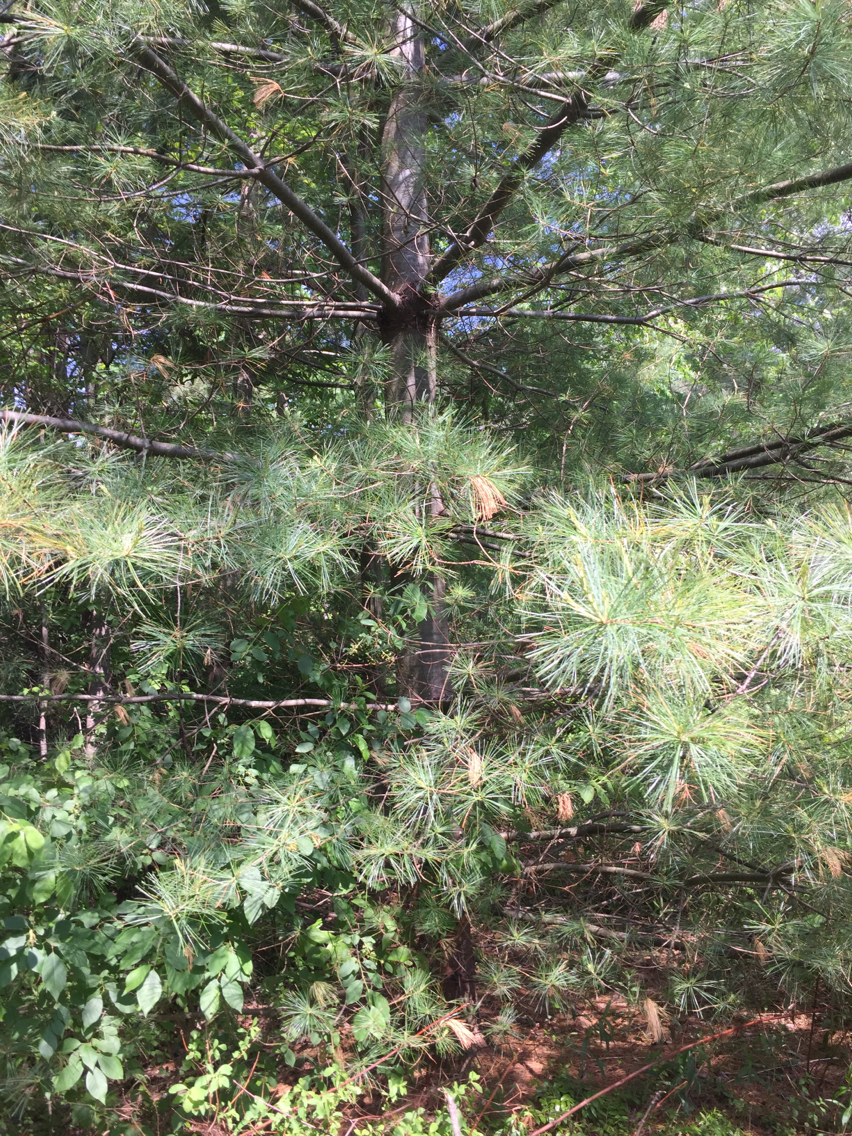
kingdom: Plantae
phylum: Tracheophyta
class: Pinopsida
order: Pinales
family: Pinaceae
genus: Pinus
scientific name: Pinus strobus
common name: Weymouth pine
